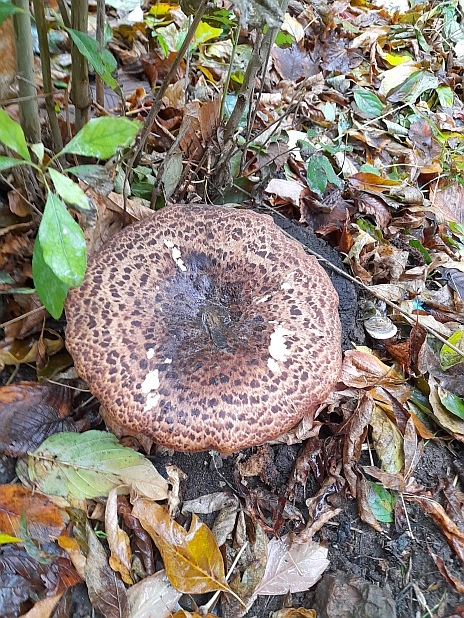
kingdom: Fungi
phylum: Basidiomycota
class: Agaricomycetes
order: Polyporales
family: Polyporaceae
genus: Cerioporus
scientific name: Cerioporus squamosus
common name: Dryad's saddle
